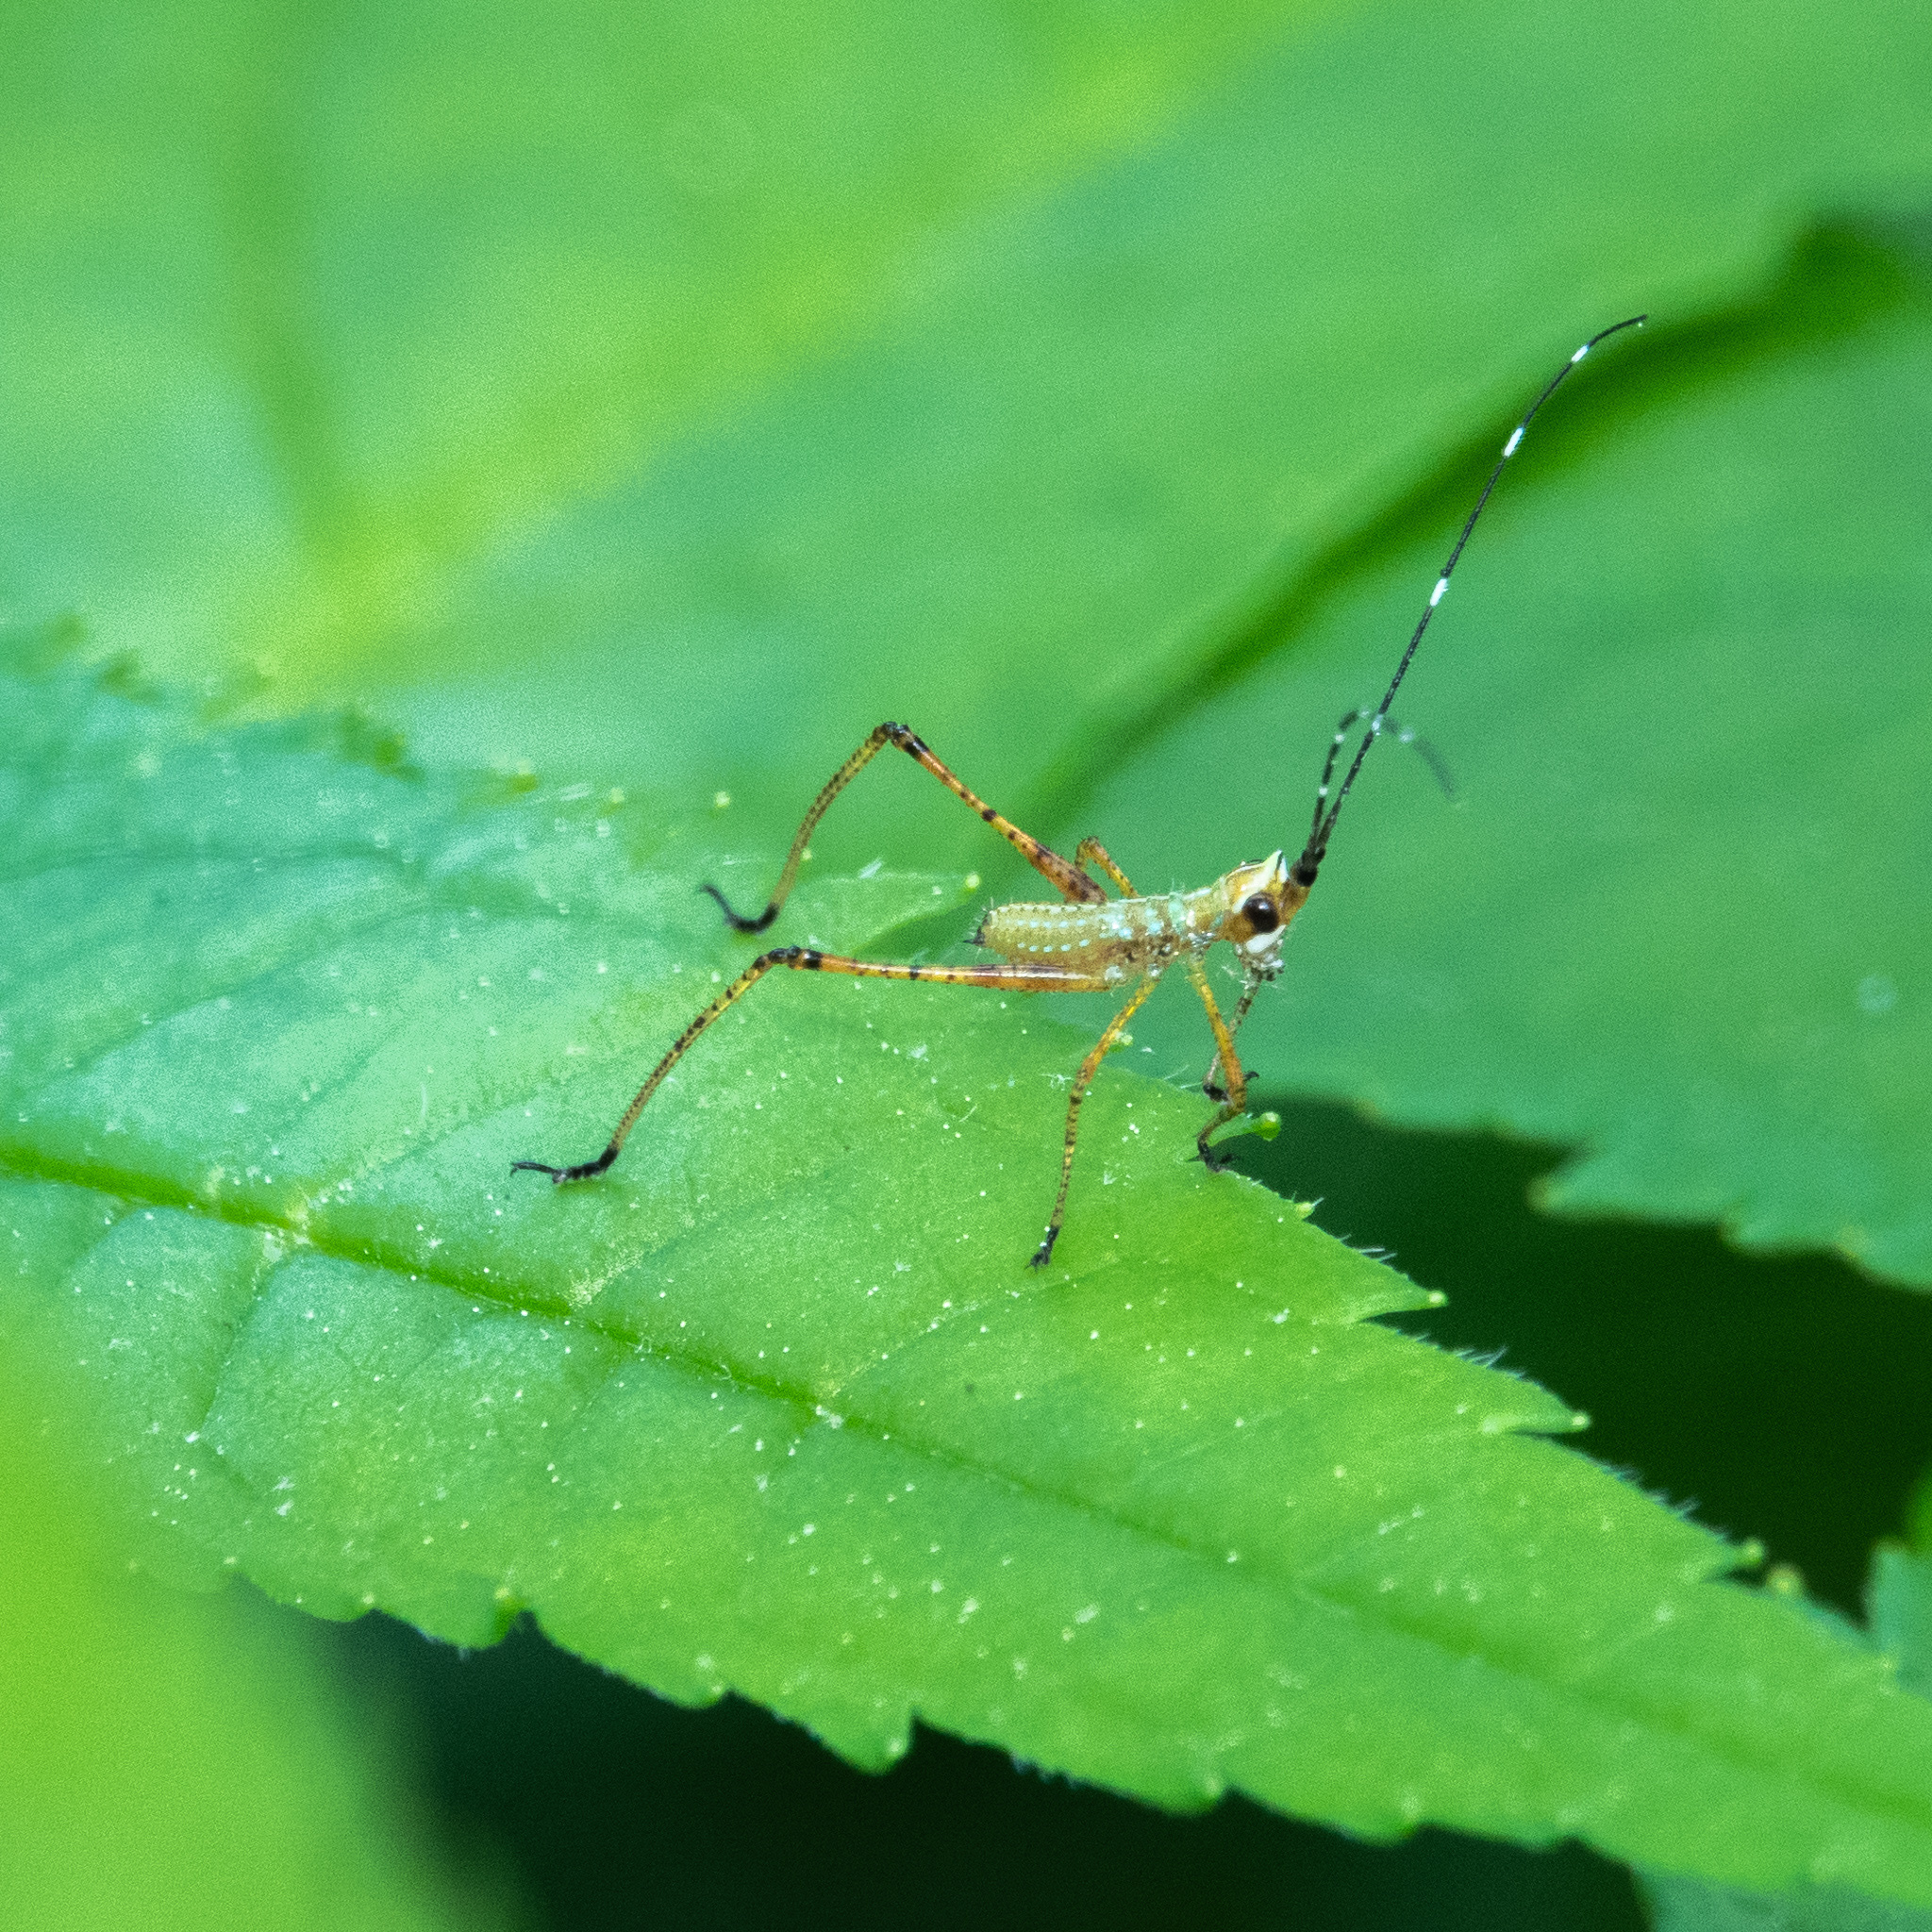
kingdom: Animalia
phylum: Arthropoda
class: Insecta
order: Orthoptera
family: Tettigoniidae
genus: Scudderia
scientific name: Scudderia furcata
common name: Fork-tailed bush katydid
